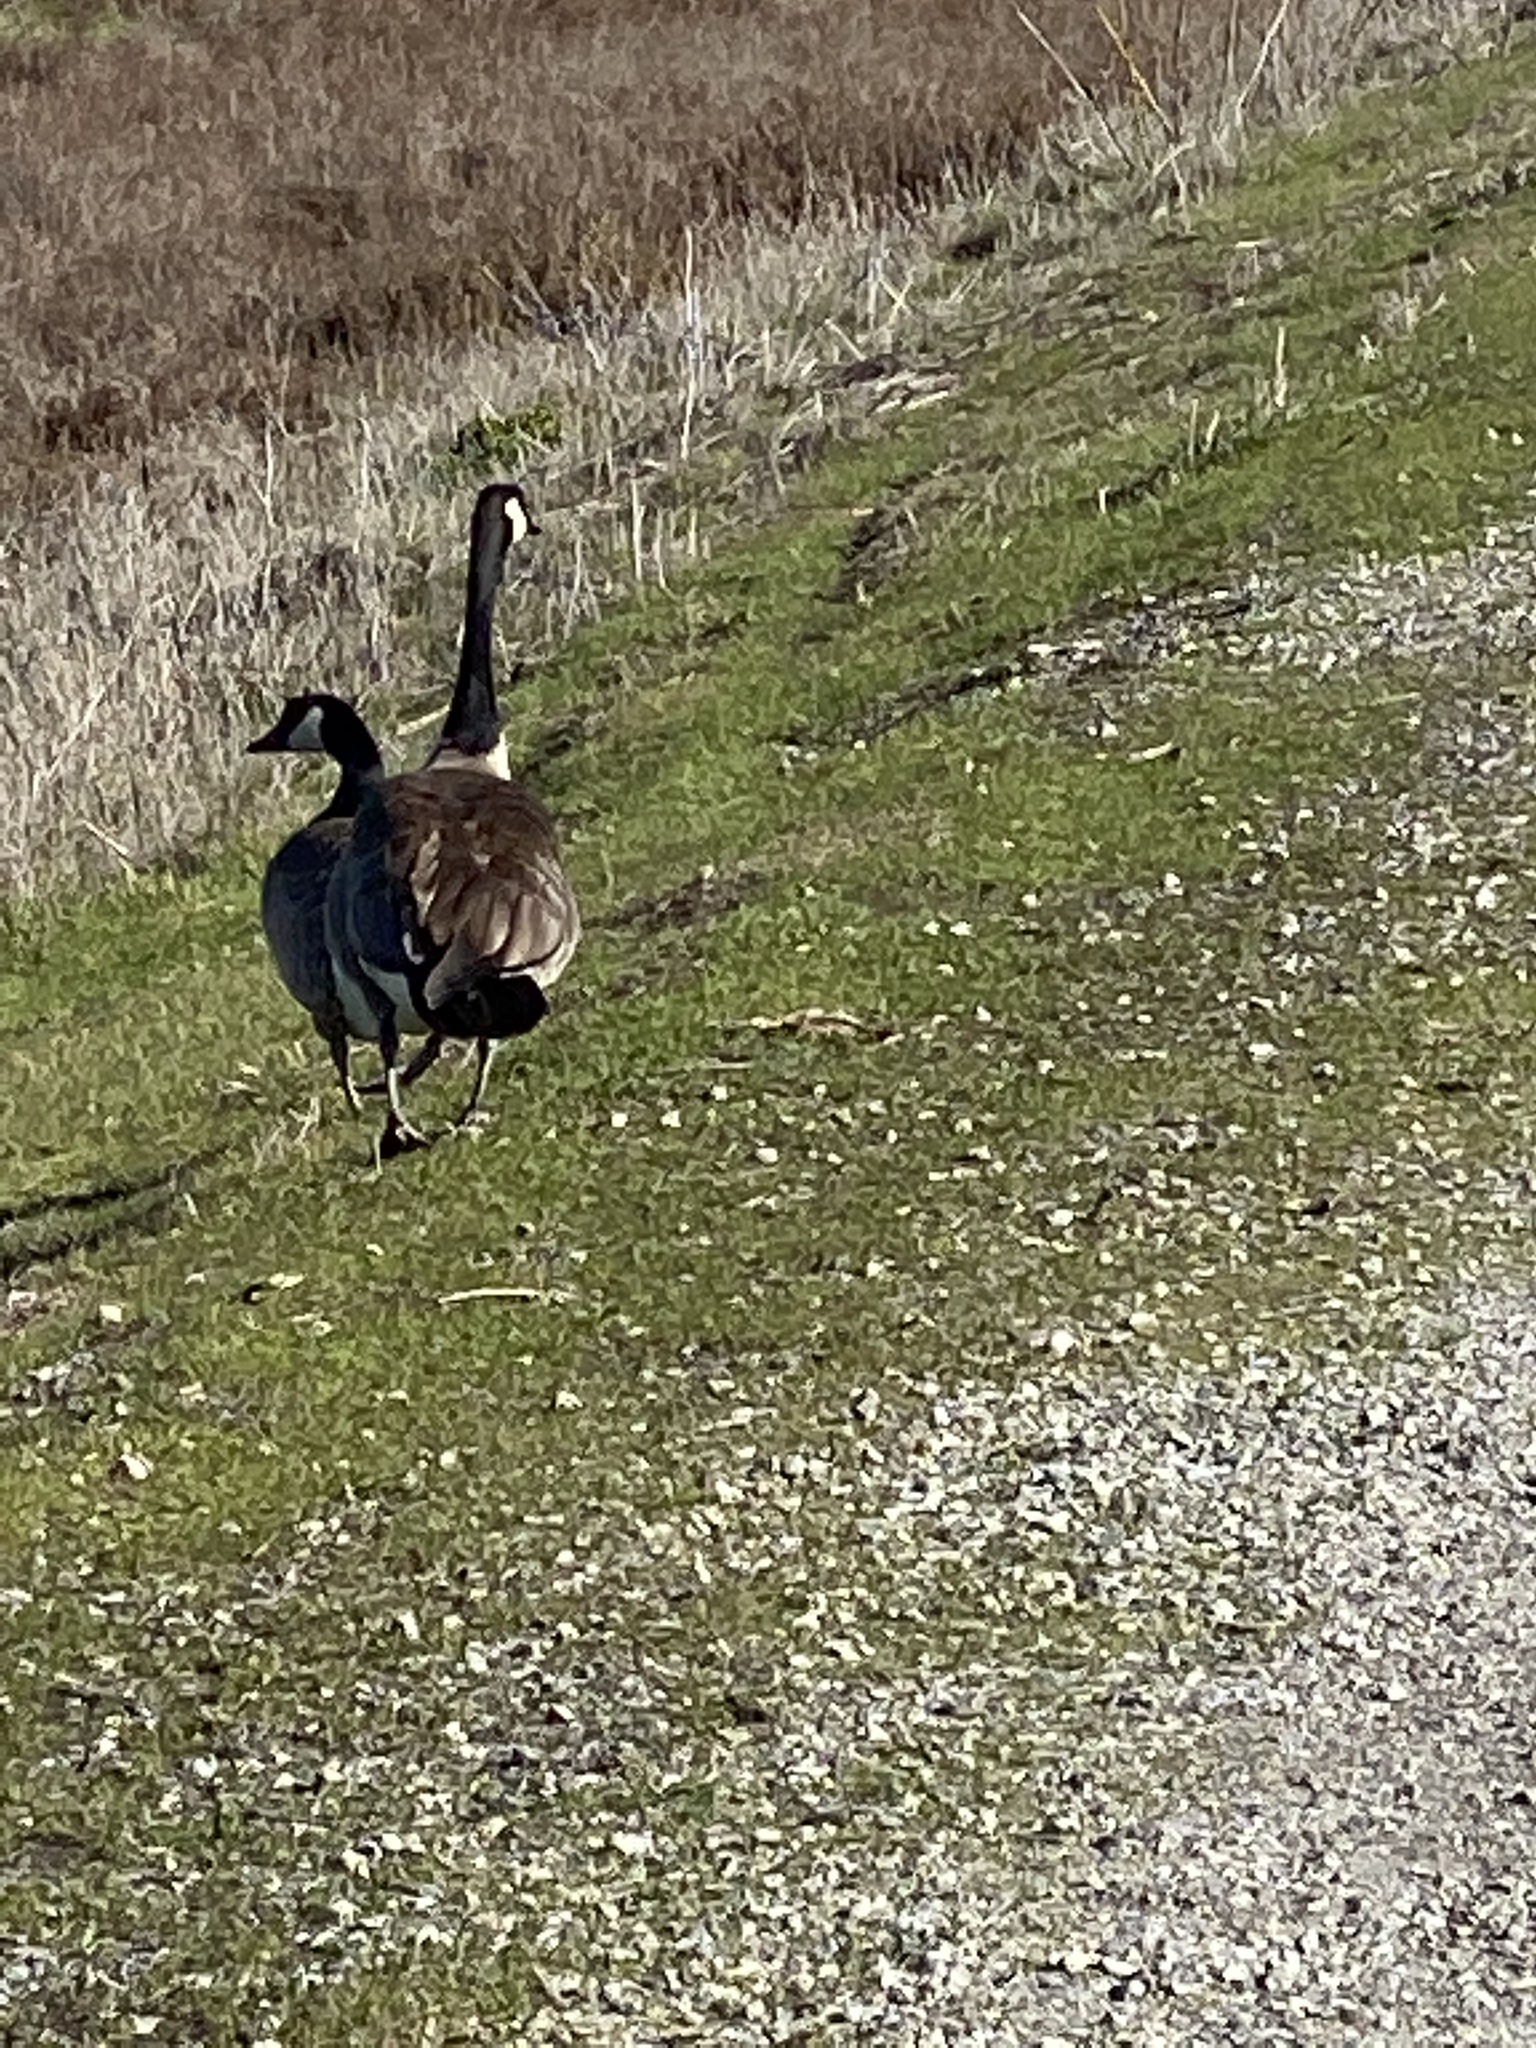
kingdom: Animalia
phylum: Chordata
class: Aves
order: Anseriformes
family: Anatidae
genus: Branta
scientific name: Branta canadensis
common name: Canada goose
